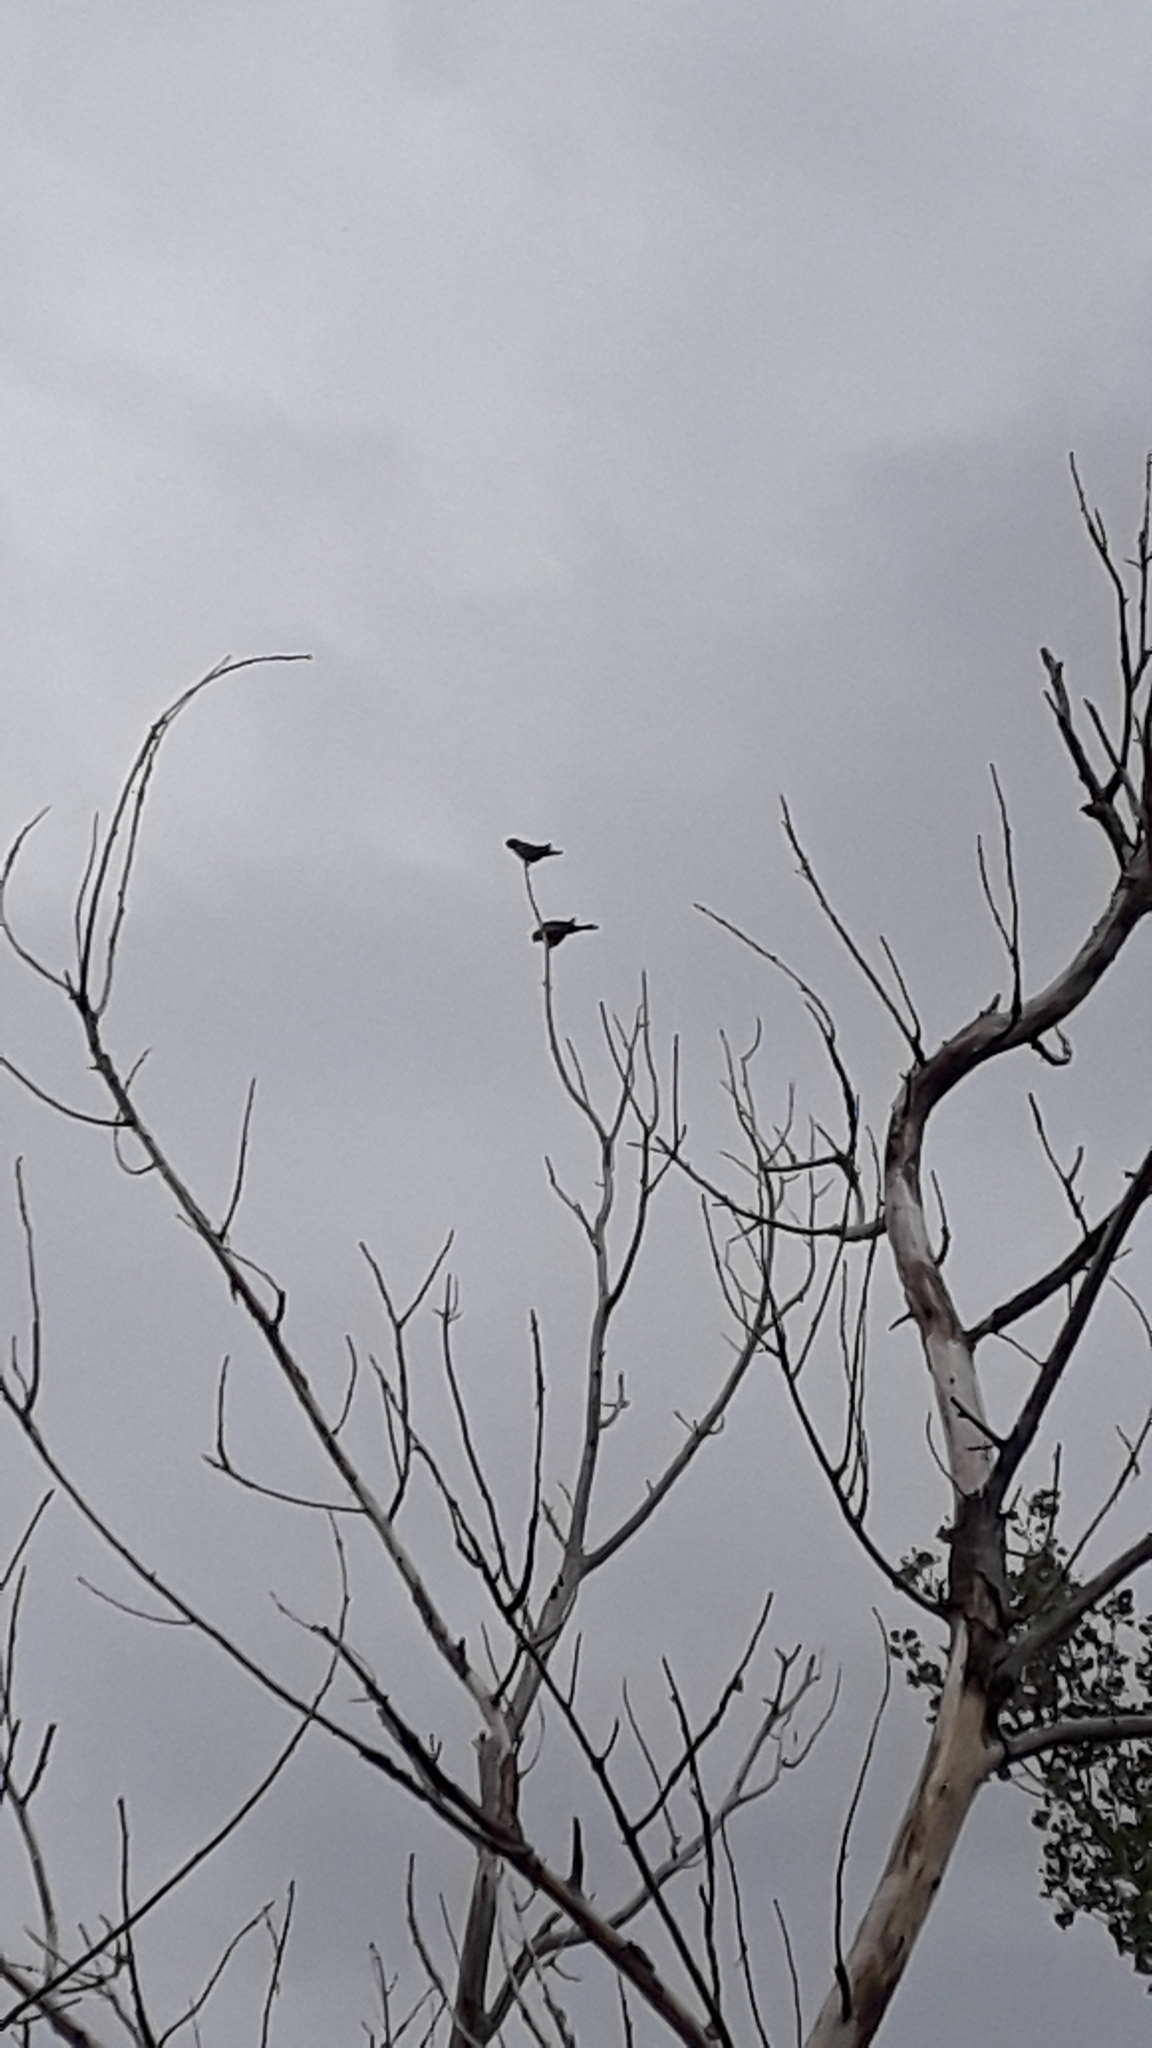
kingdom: Animalia
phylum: Chordata
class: Aves
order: Psittaciformes
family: Psittacidae
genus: Cyanoliseus
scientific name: Cyanoliseus patagonus
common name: Burrowing parrot
